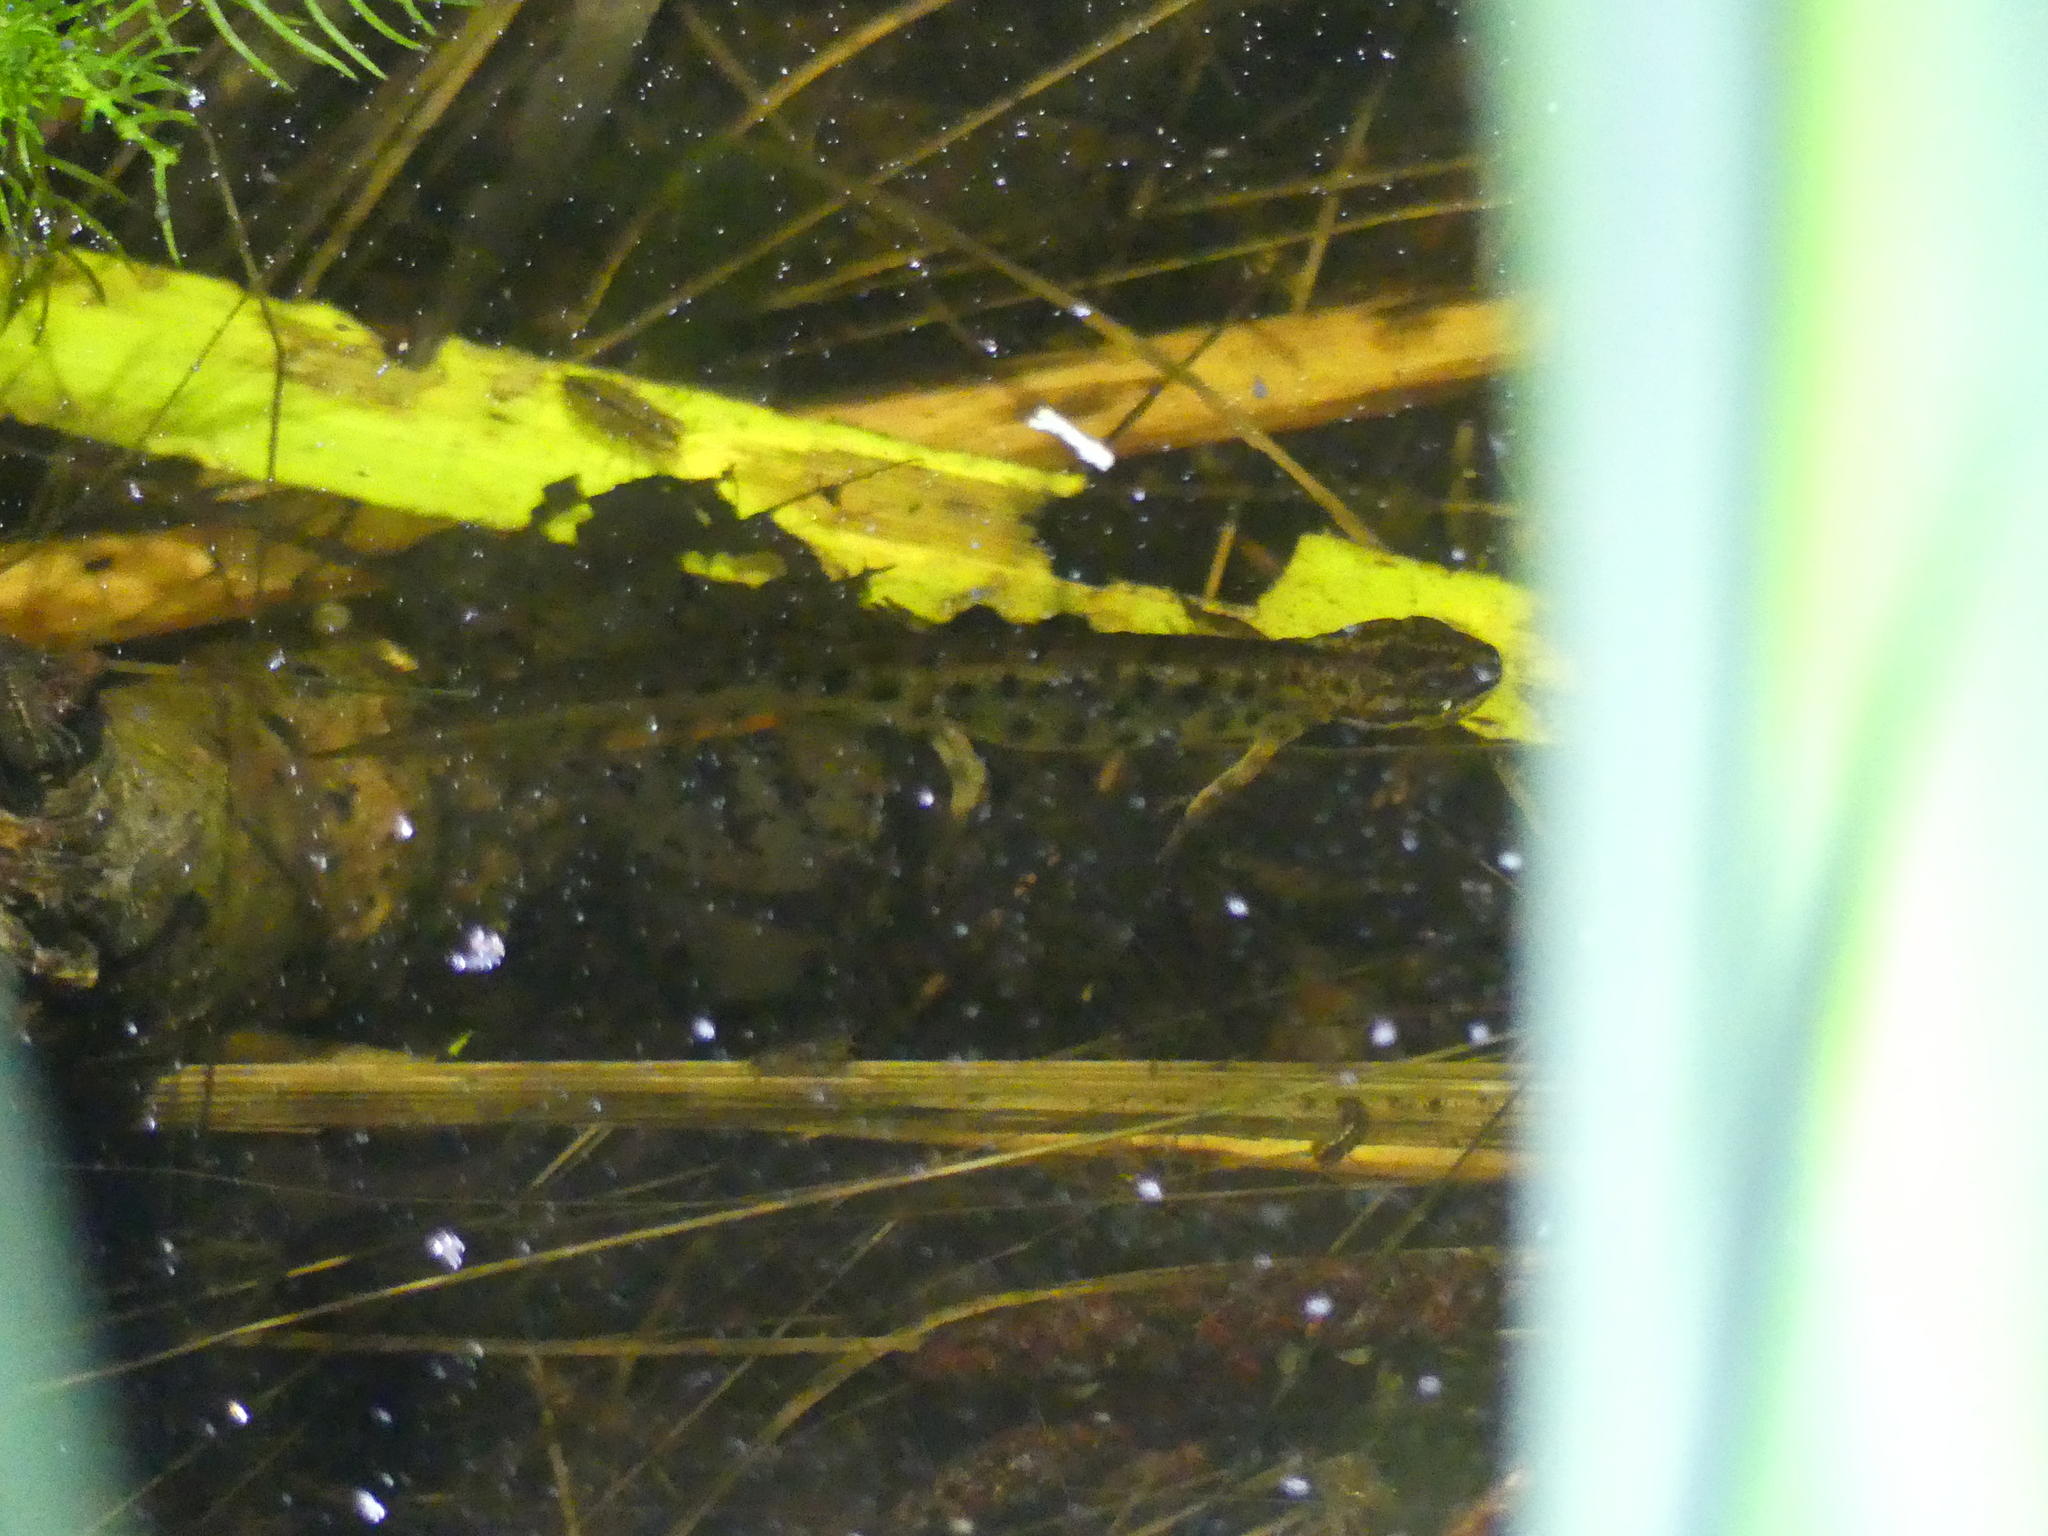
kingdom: Animalia
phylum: Chordata
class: Amphibia
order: Caudata
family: Salamandridae
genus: Lissotriton
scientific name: Lissotriton vulgaris
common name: Smooth newt
